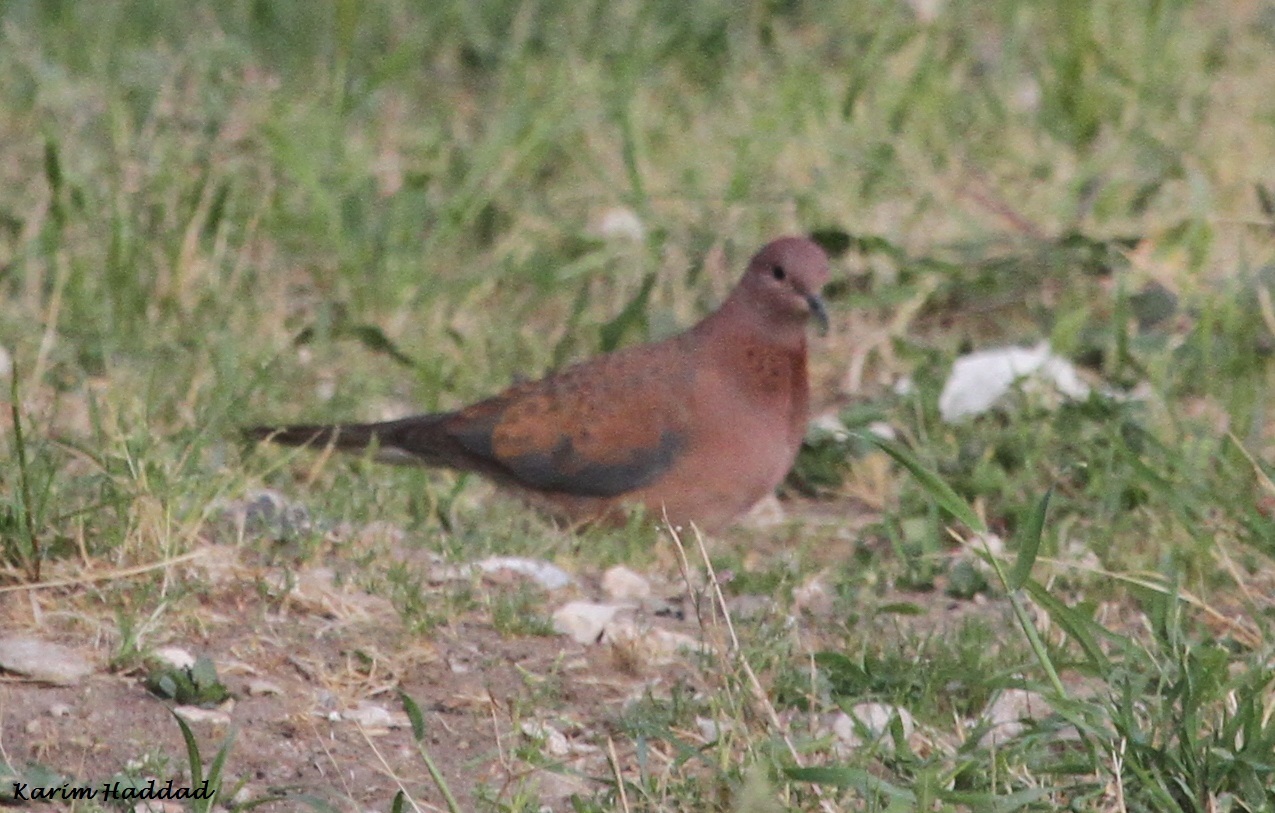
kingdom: Animalia
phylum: Chordata
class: Aves
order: Columbiformes
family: Columbidae
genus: Spilopelia
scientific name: Spilopelia senegalensis
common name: Laughing dove
